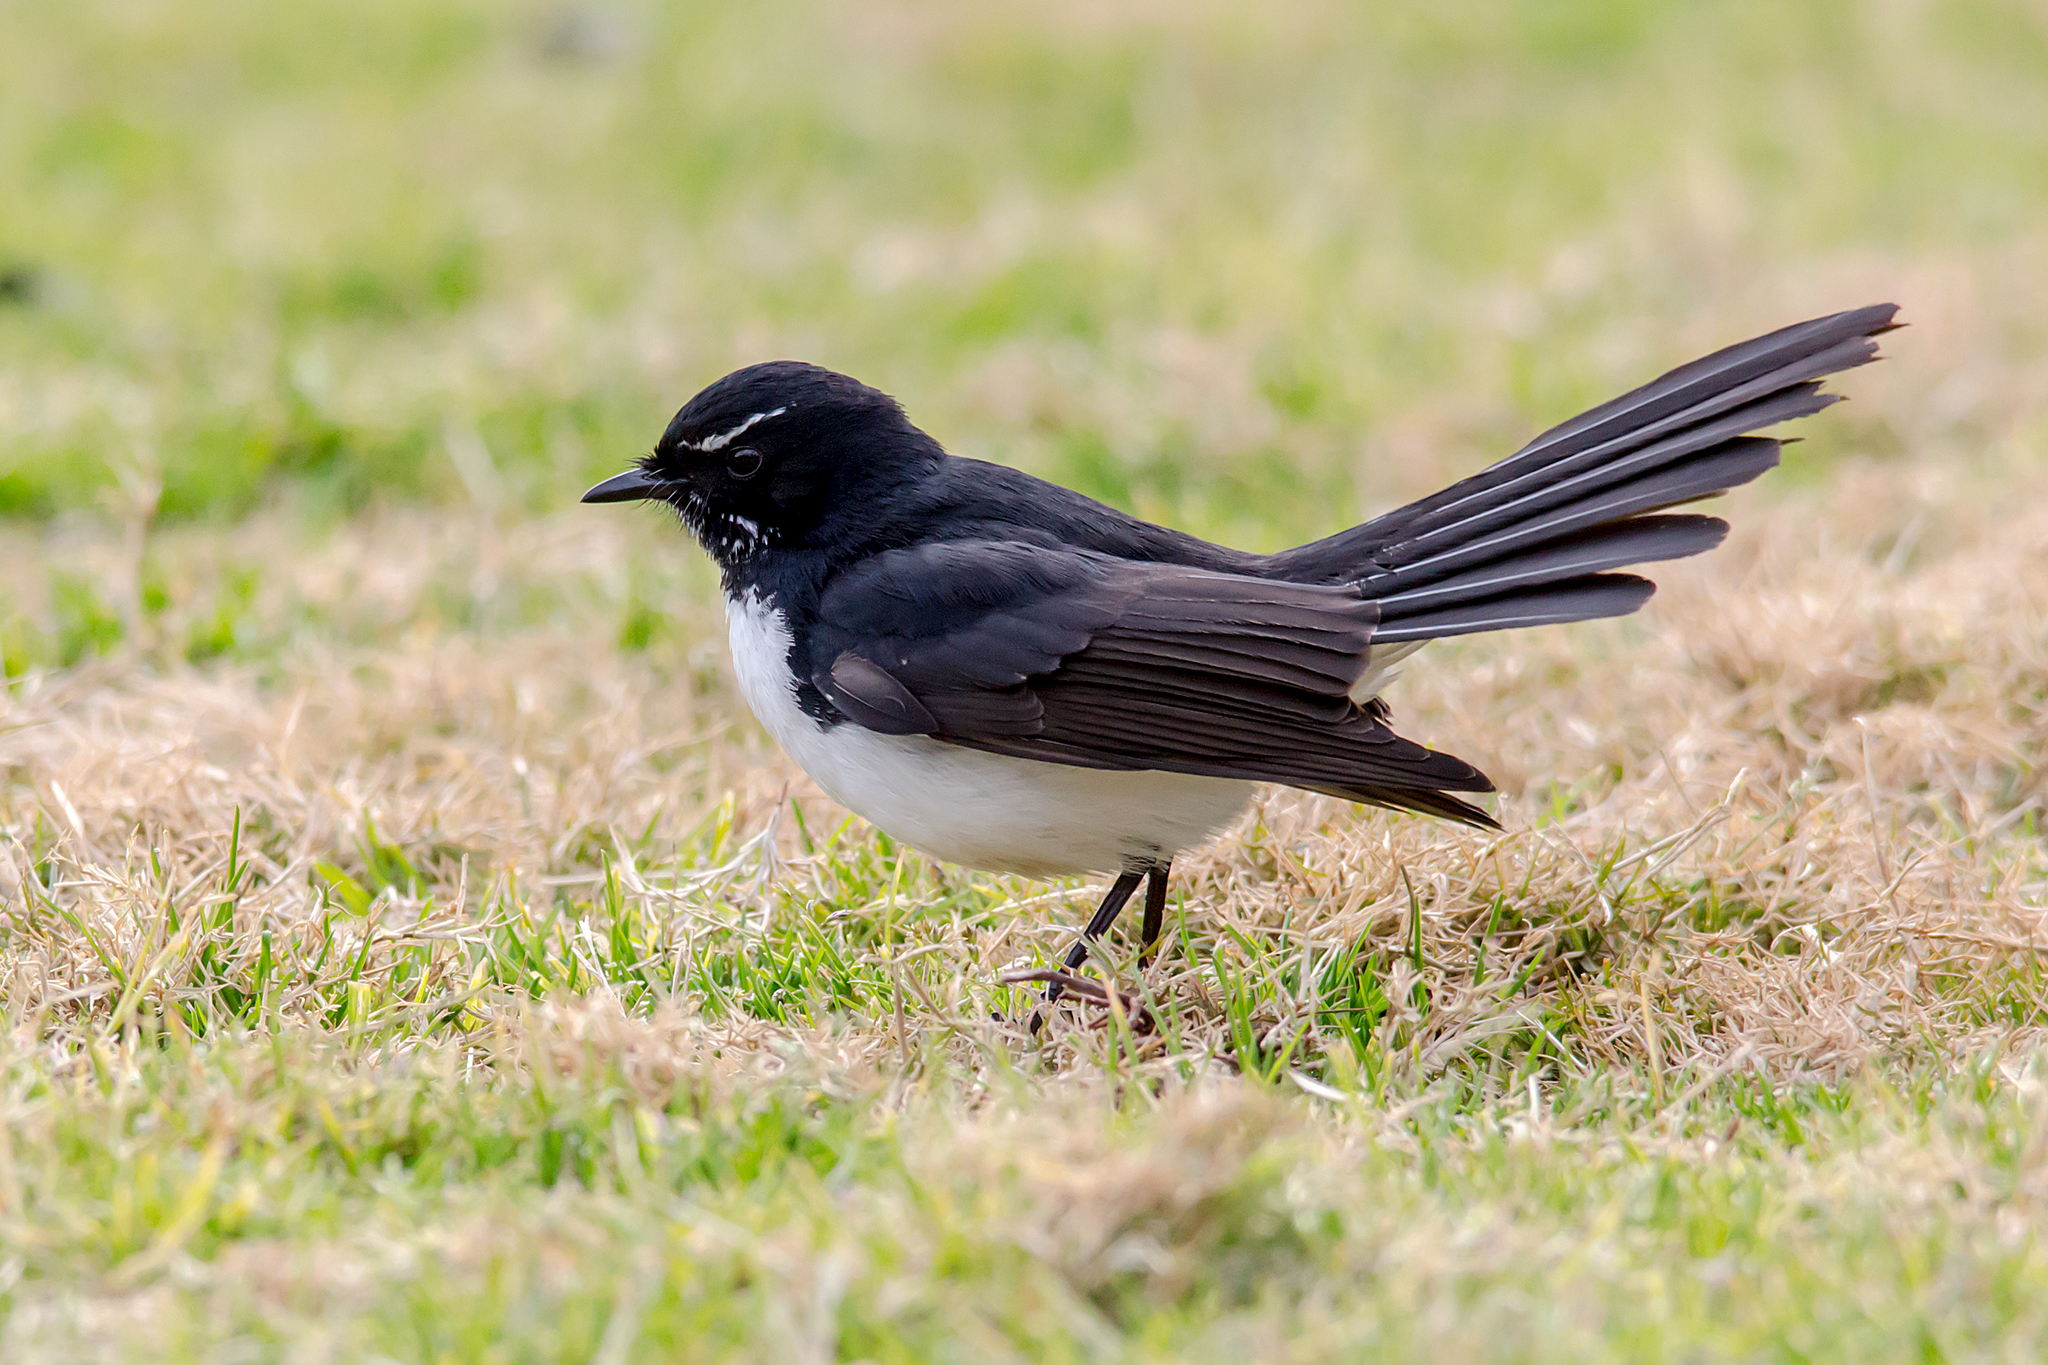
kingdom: Animalia
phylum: Chordata
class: Aves
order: Passeriformes
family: Rhipiduridae
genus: Rhipidura
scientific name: Rhipidura leucophrys
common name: Willie wagtail
